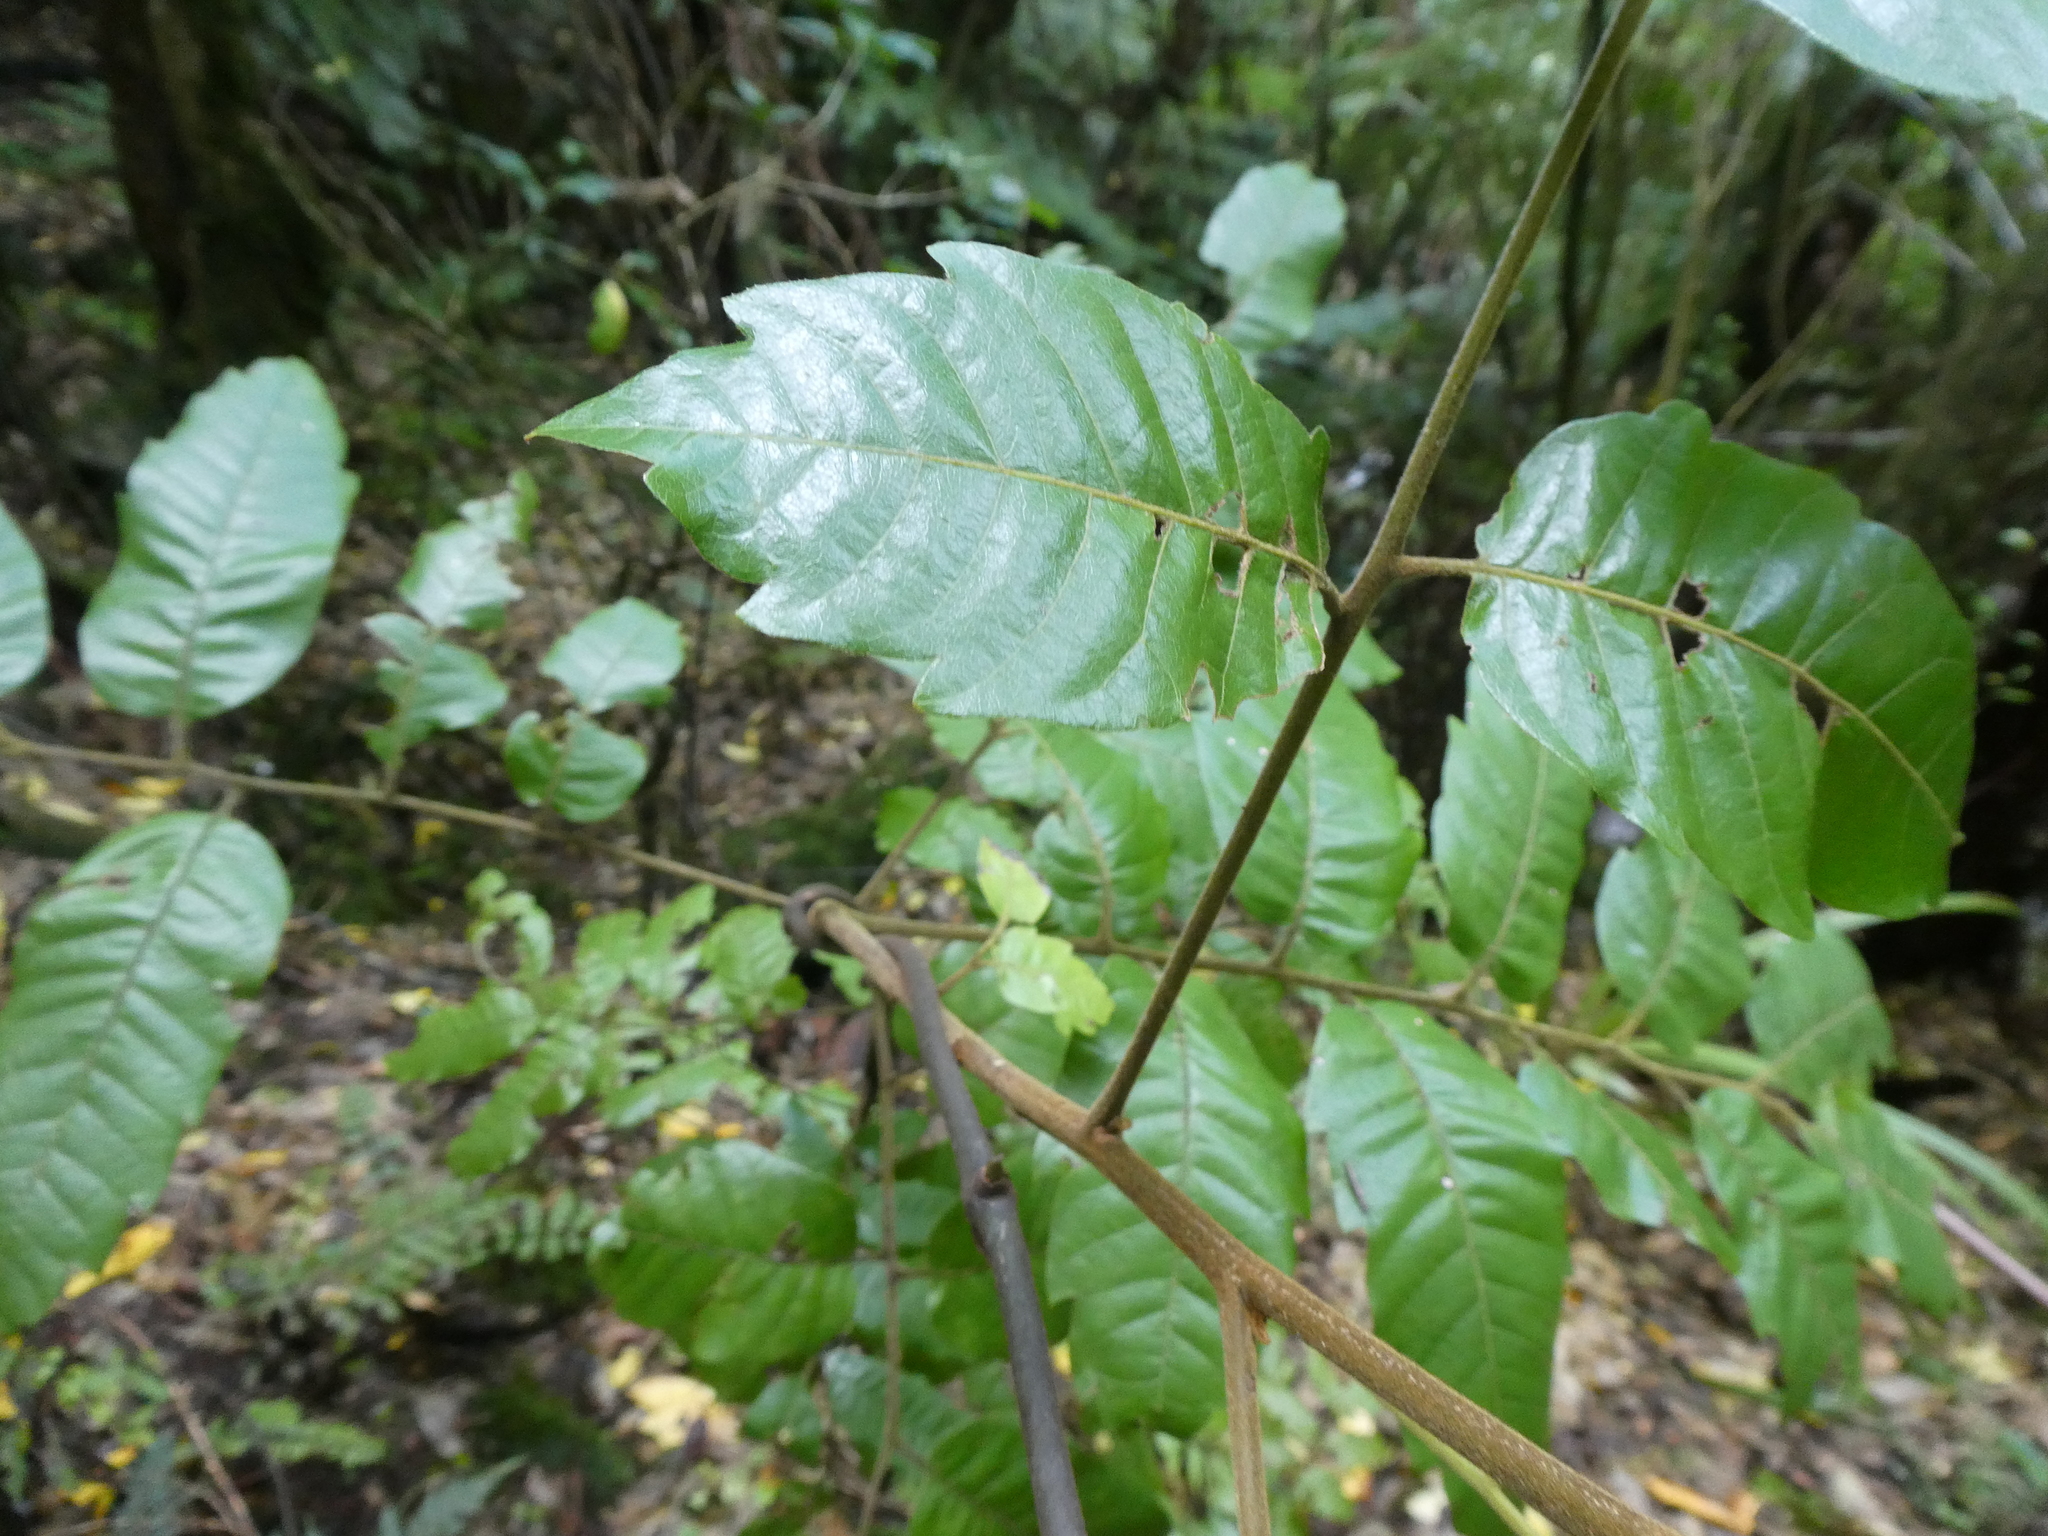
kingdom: Plantae
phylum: Tracheophyta
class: Magnoliopsida
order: Sapindales
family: Sapindaceae
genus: Alectryon
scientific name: Alectryon excelsus
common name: Three kings titoki
